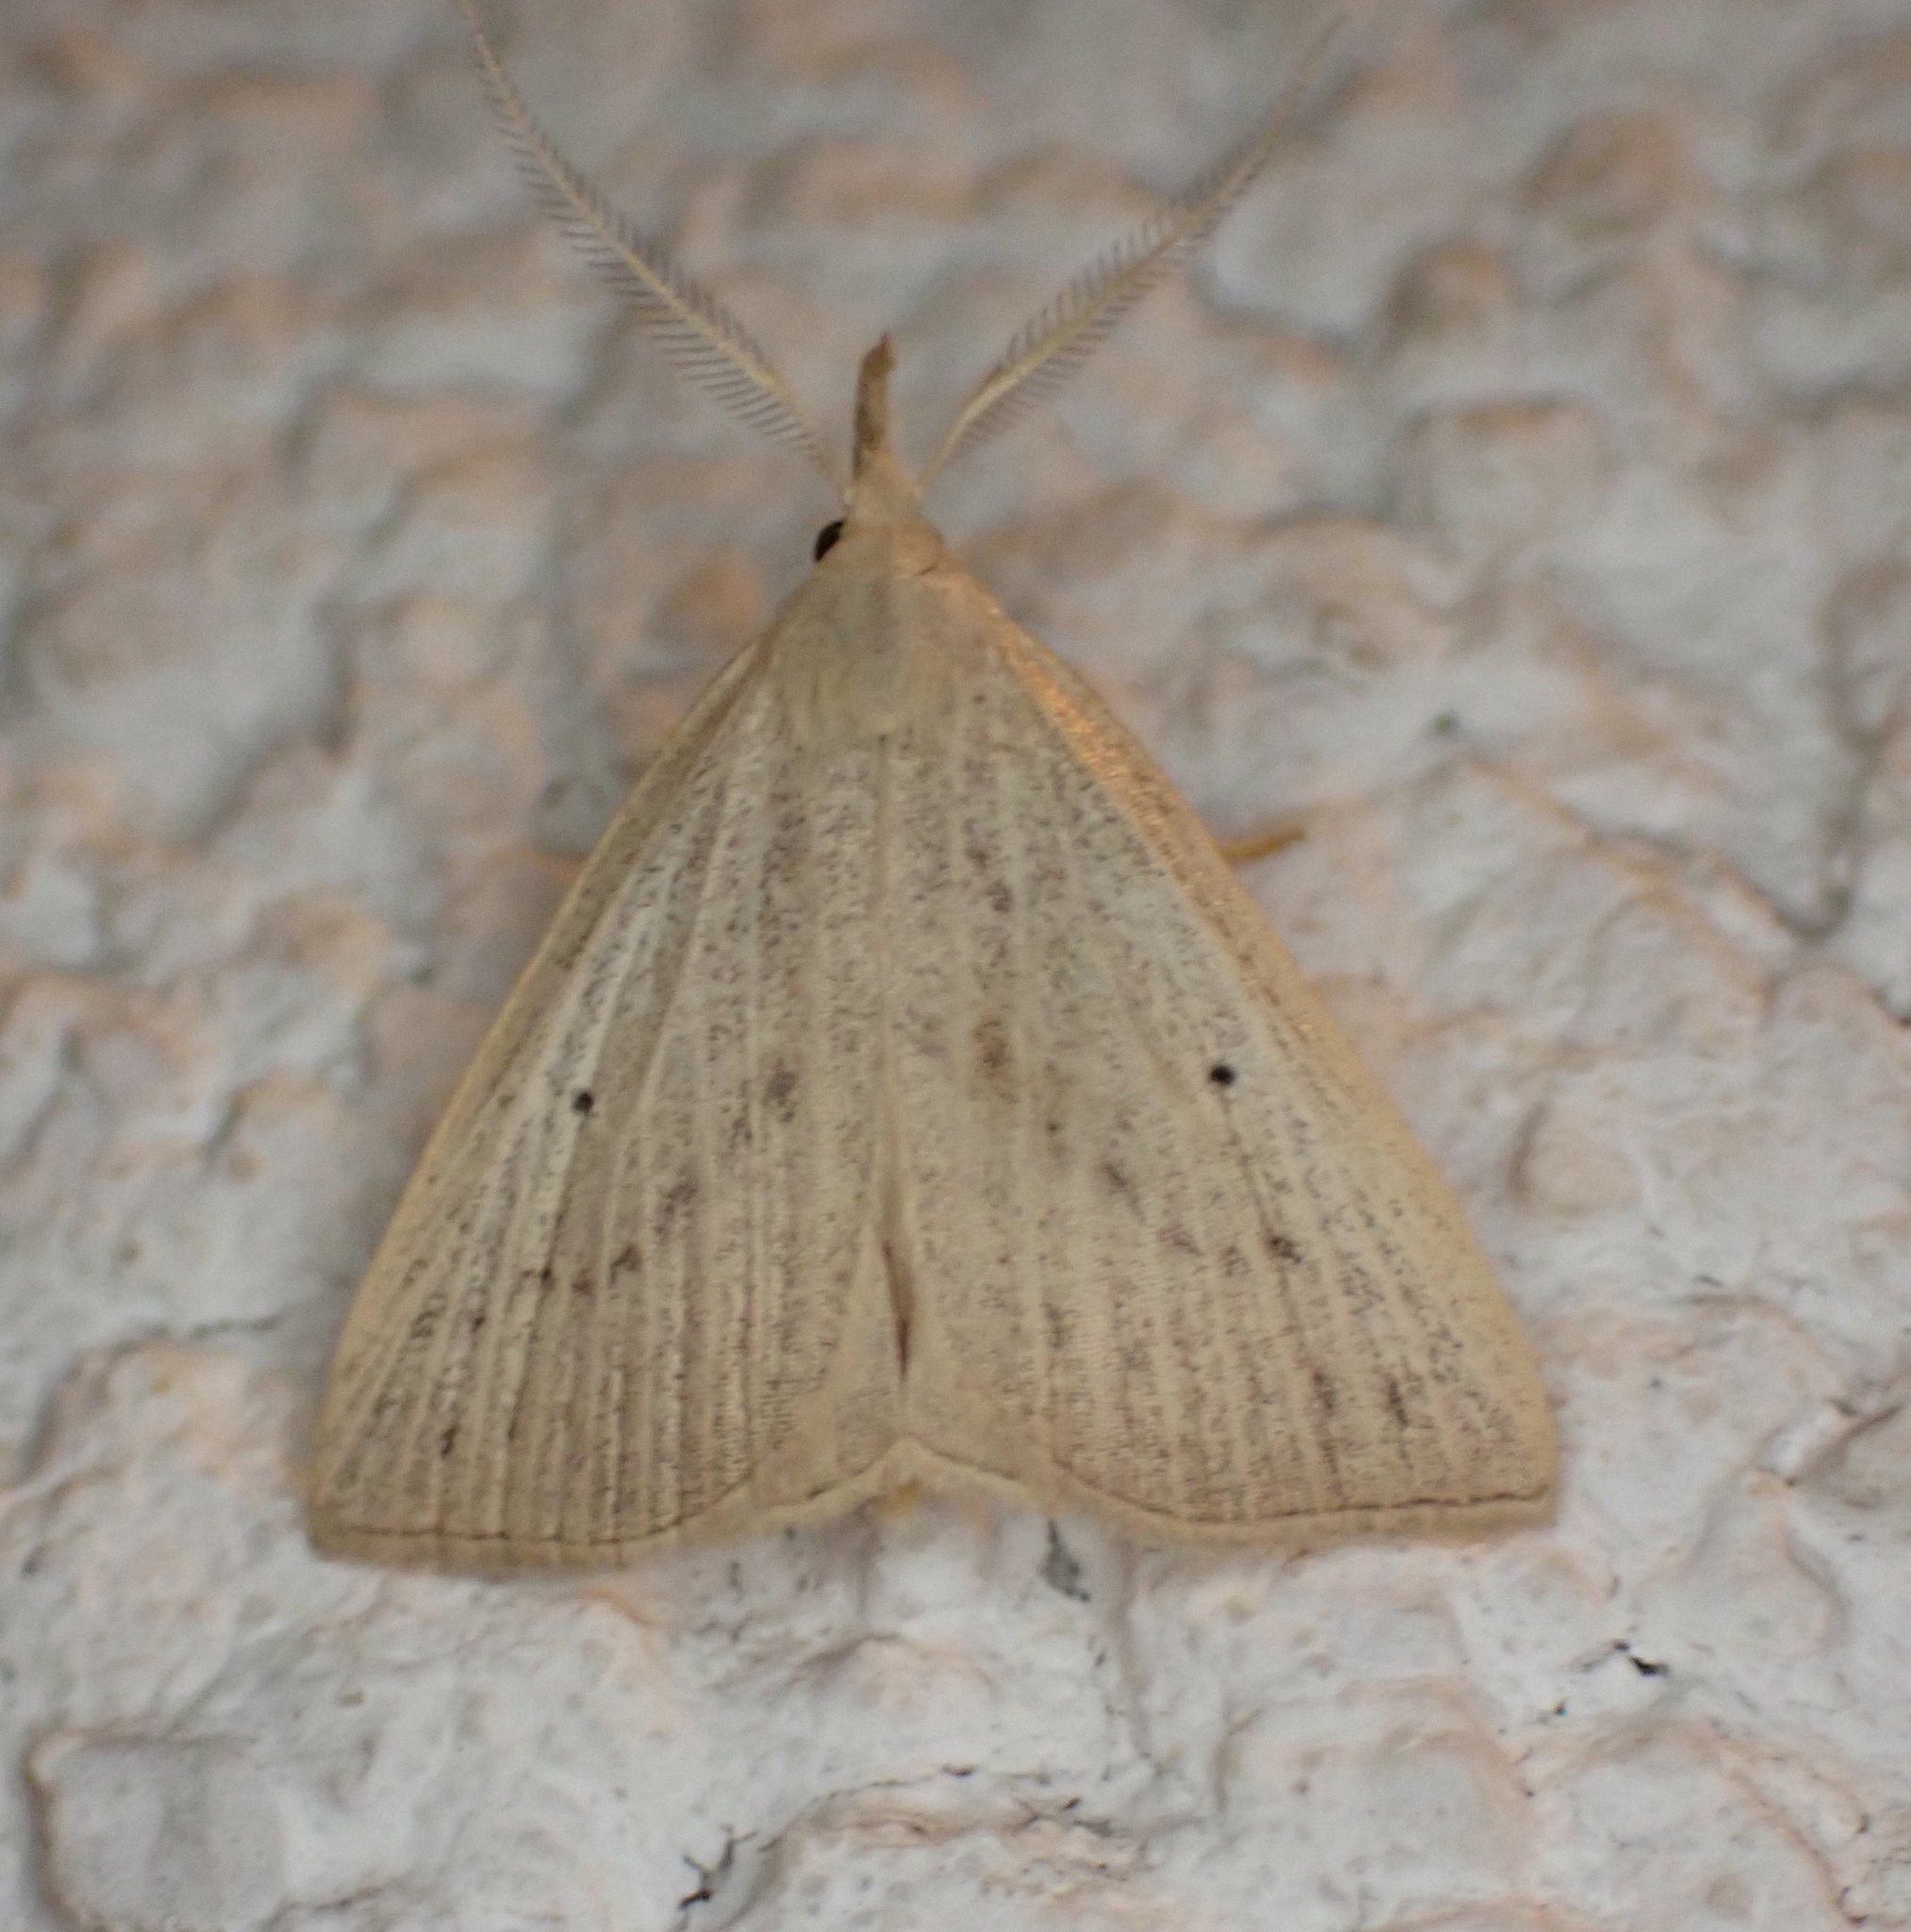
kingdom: Animalia
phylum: Arthropoda
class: Insecta
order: Lepidoptera
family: Erebidae
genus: Macrochilo
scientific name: Macrochilo cribrumalis
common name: Dotted fan-foot
